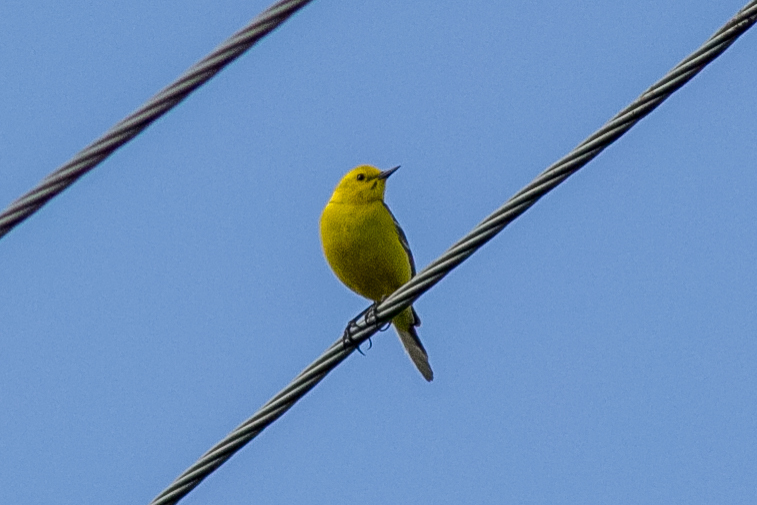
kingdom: Animalia
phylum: Chordata
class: Aves
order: Passeriformes
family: Motacillidae
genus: Motacilla
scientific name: Motacilla citreola
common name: Citrine wagtail
